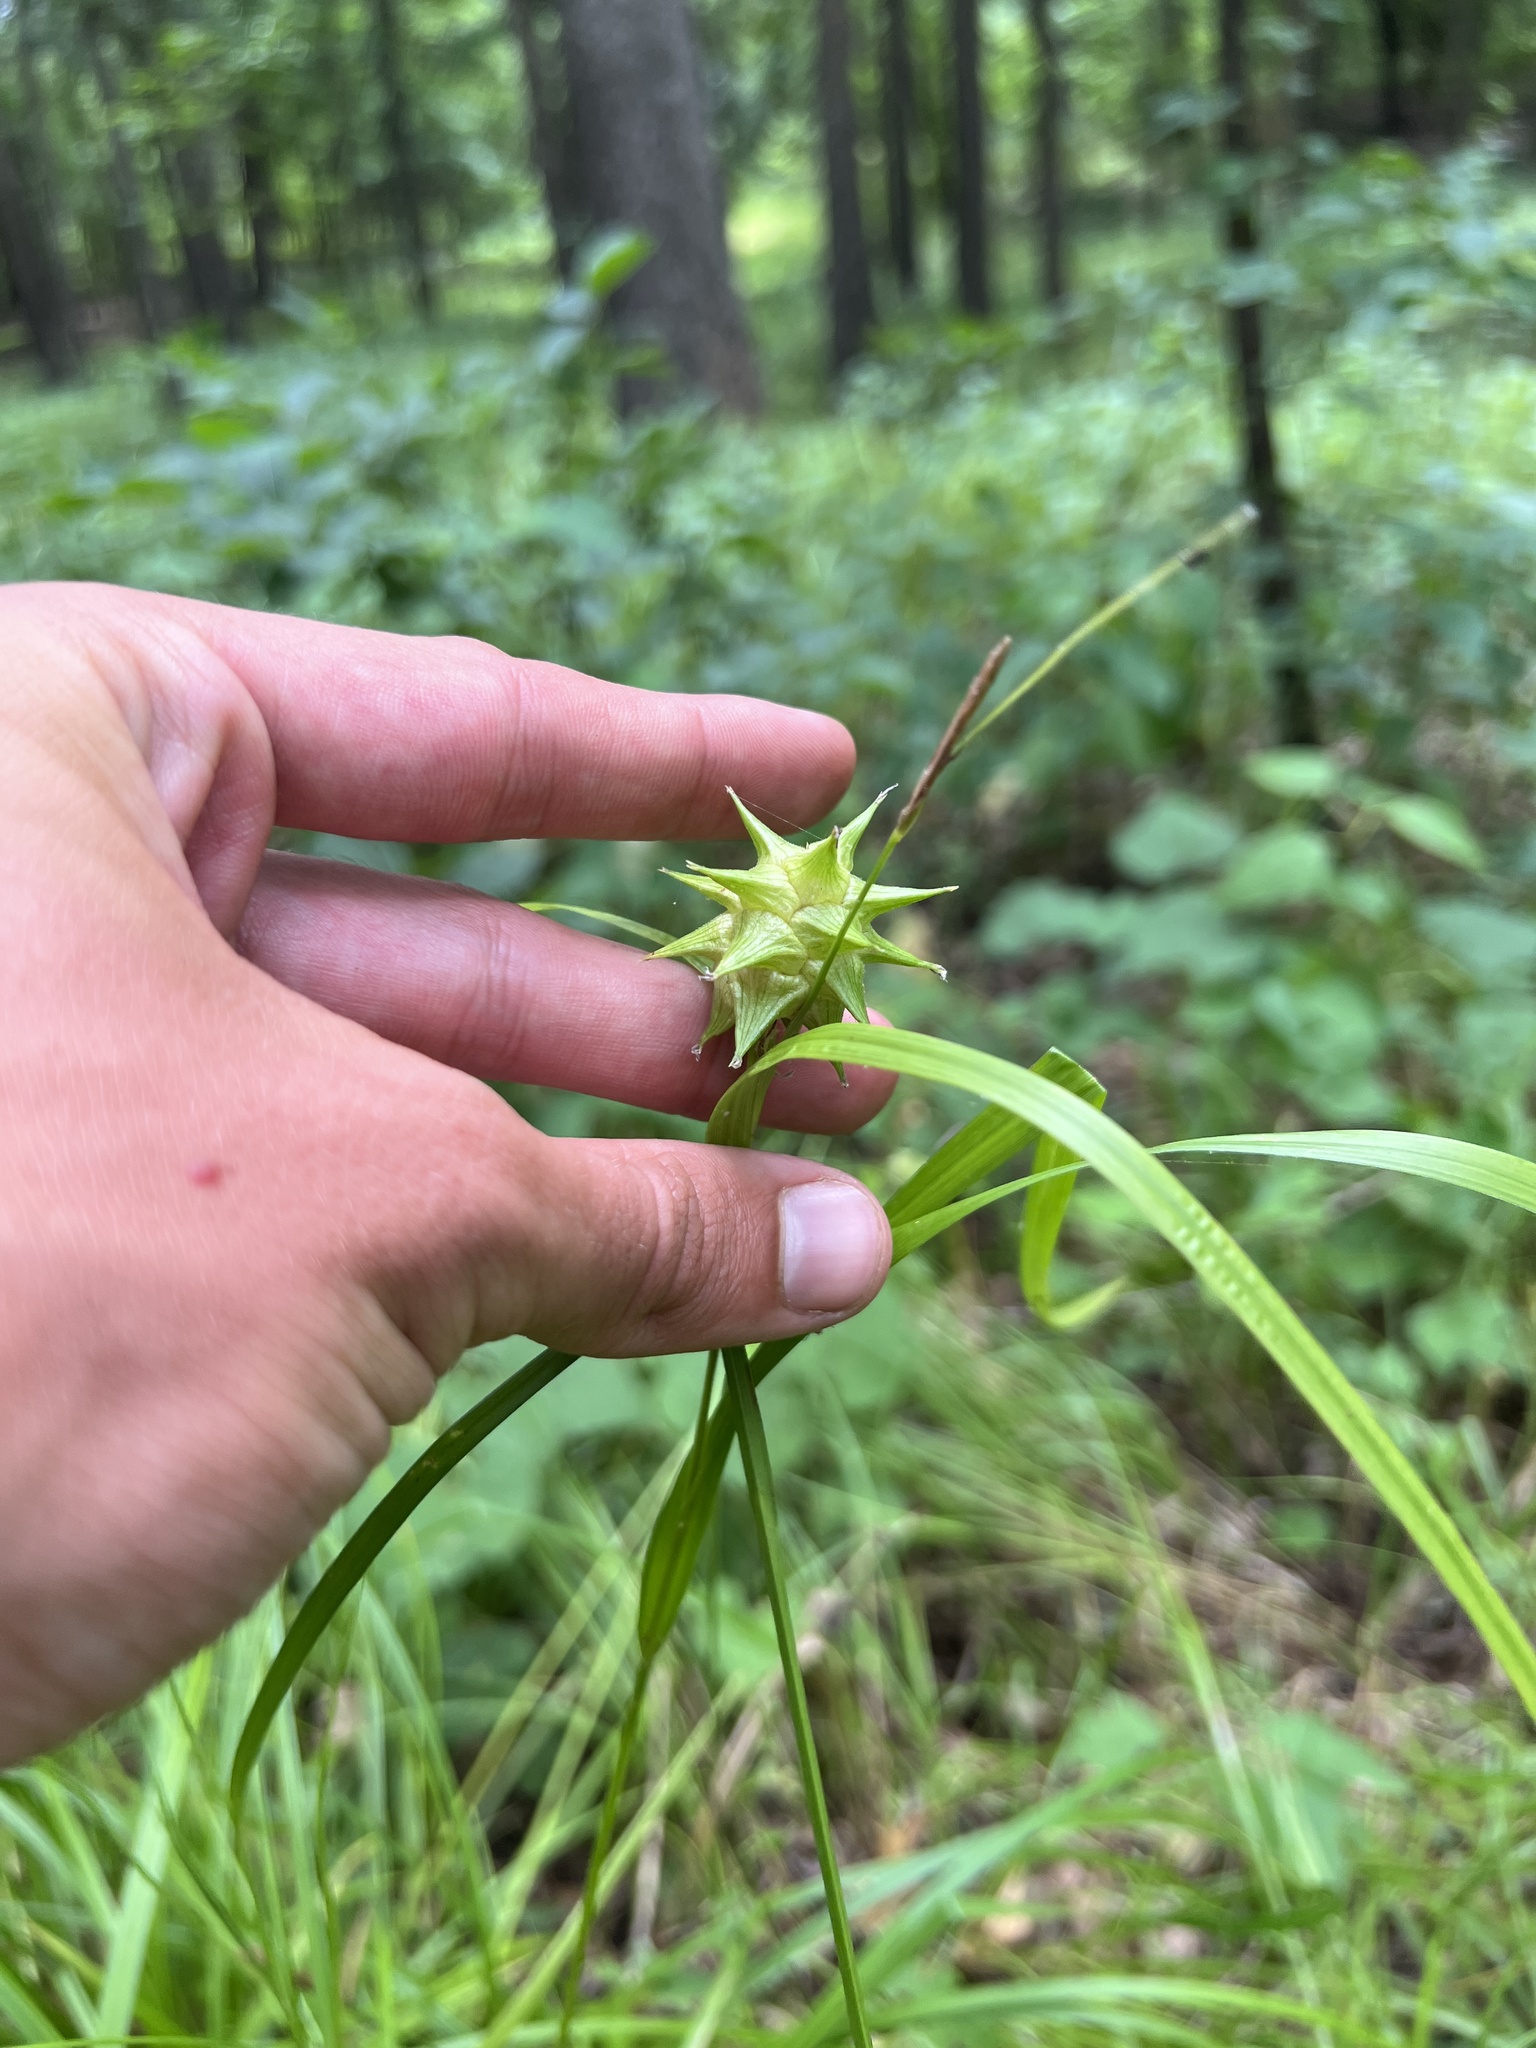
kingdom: Plantae
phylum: Tracheophyta
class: Liliopsida
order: Poales
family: Cyperaceae
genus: Carex
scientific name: Carex grayi
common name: Asa gray's sedge
